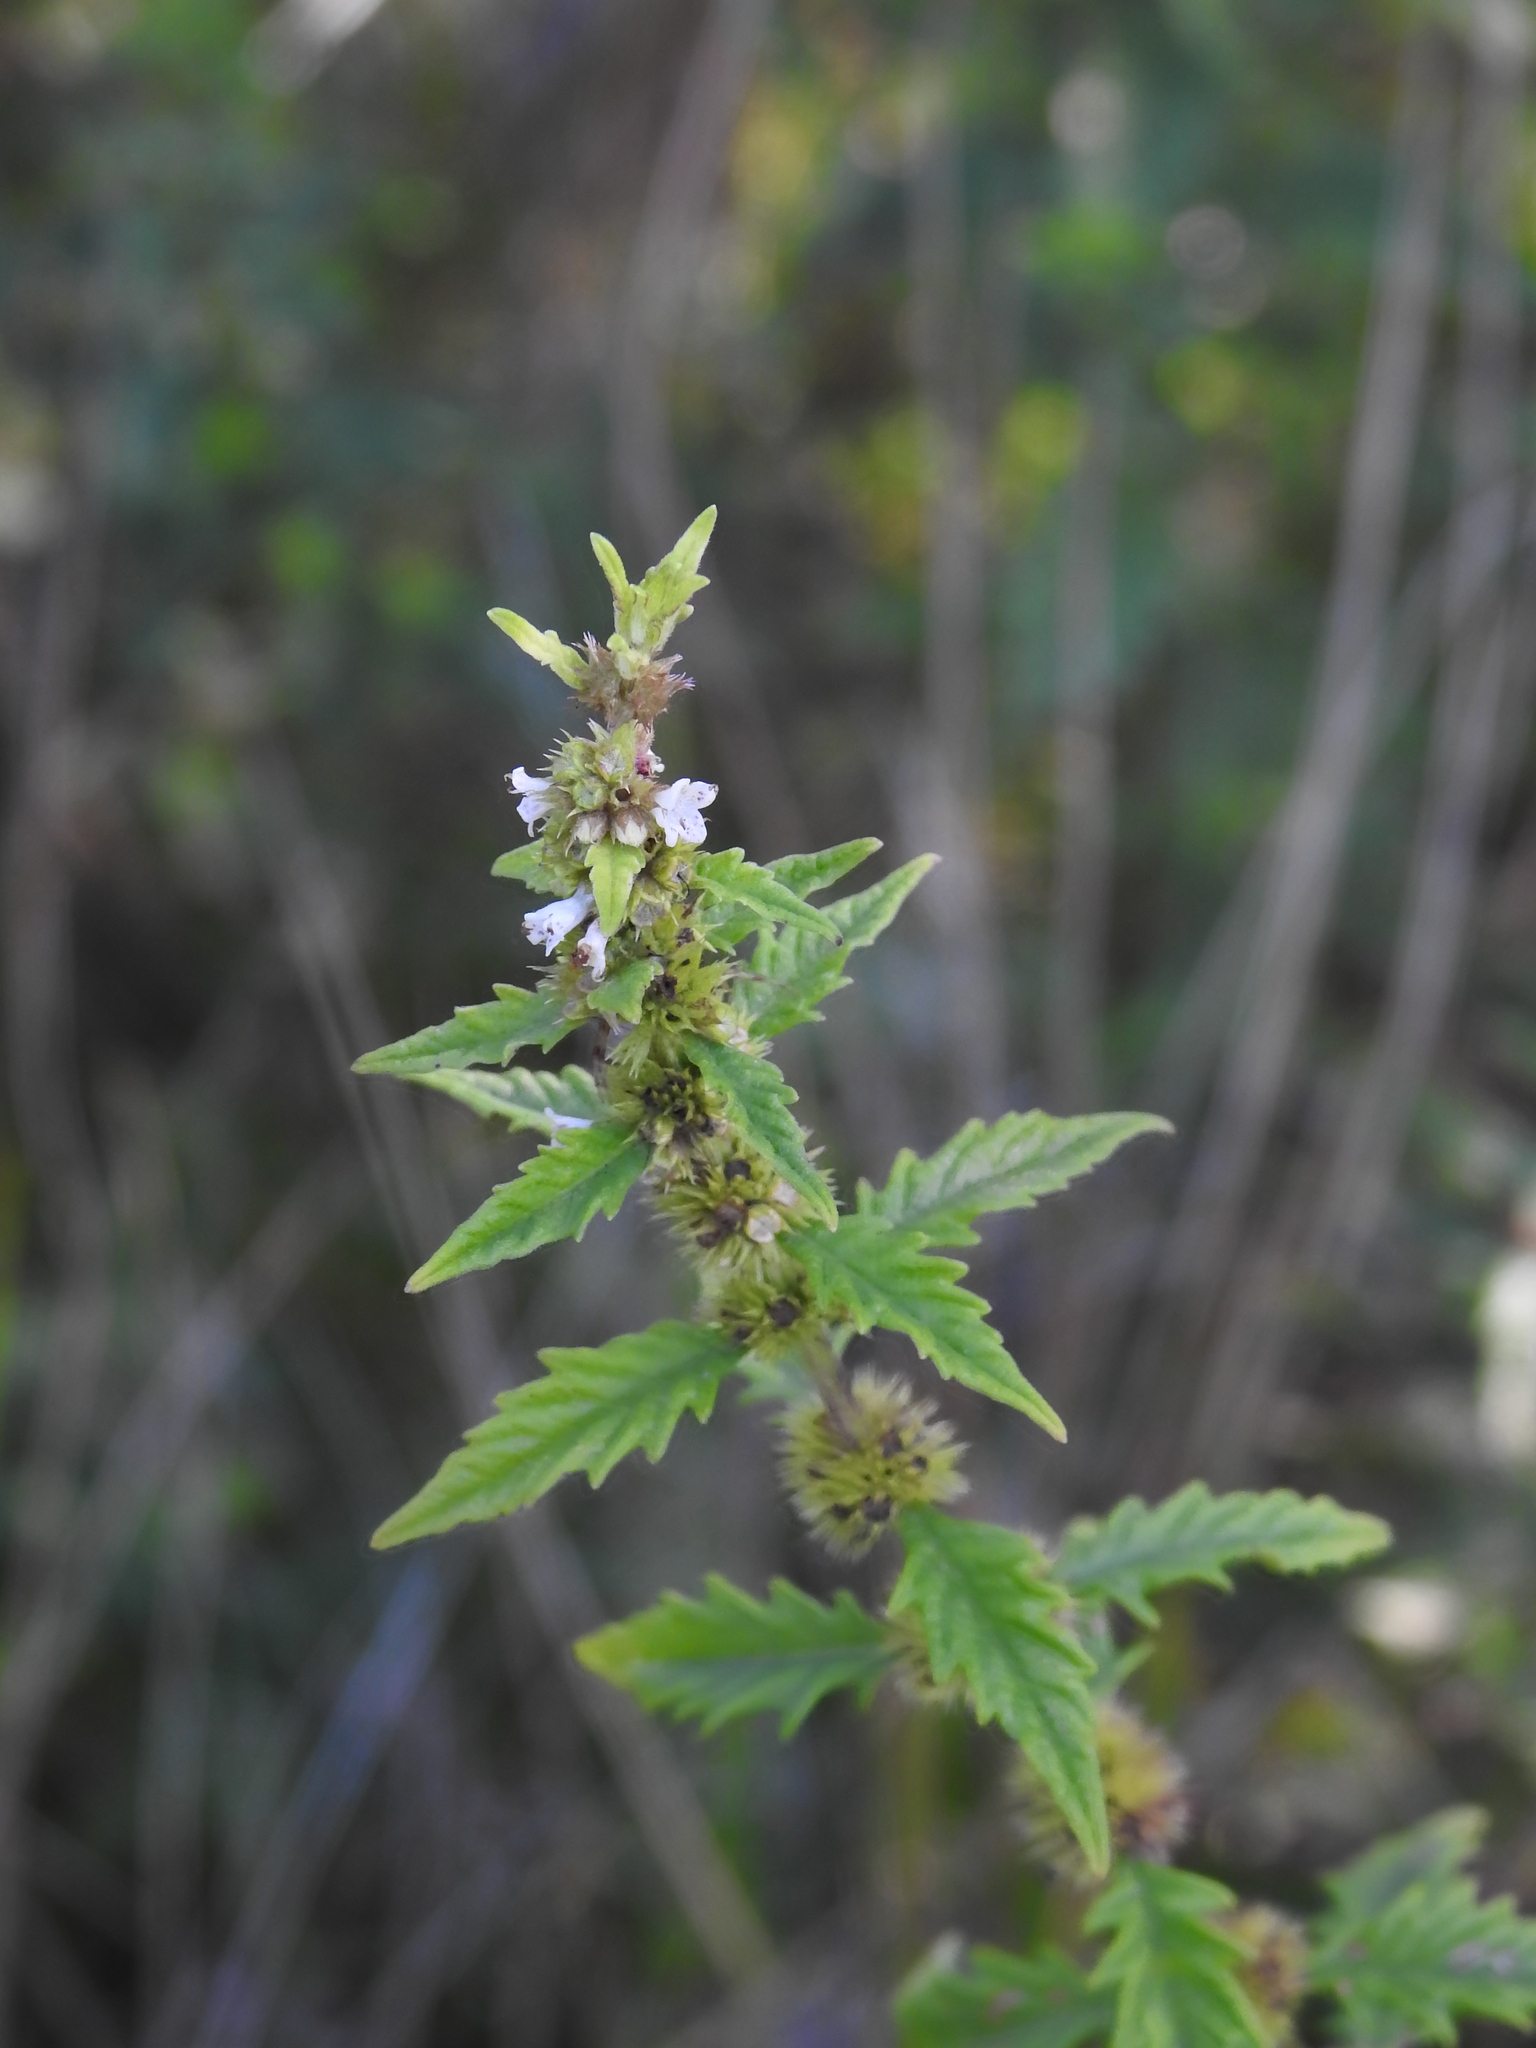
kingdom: Plantae
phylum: Tracheophyta
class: Magnoliopsida
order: Lamiales
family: Lamiaceae
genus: Lycopus
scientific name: Lycopus europaeus
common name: European bugleweed
